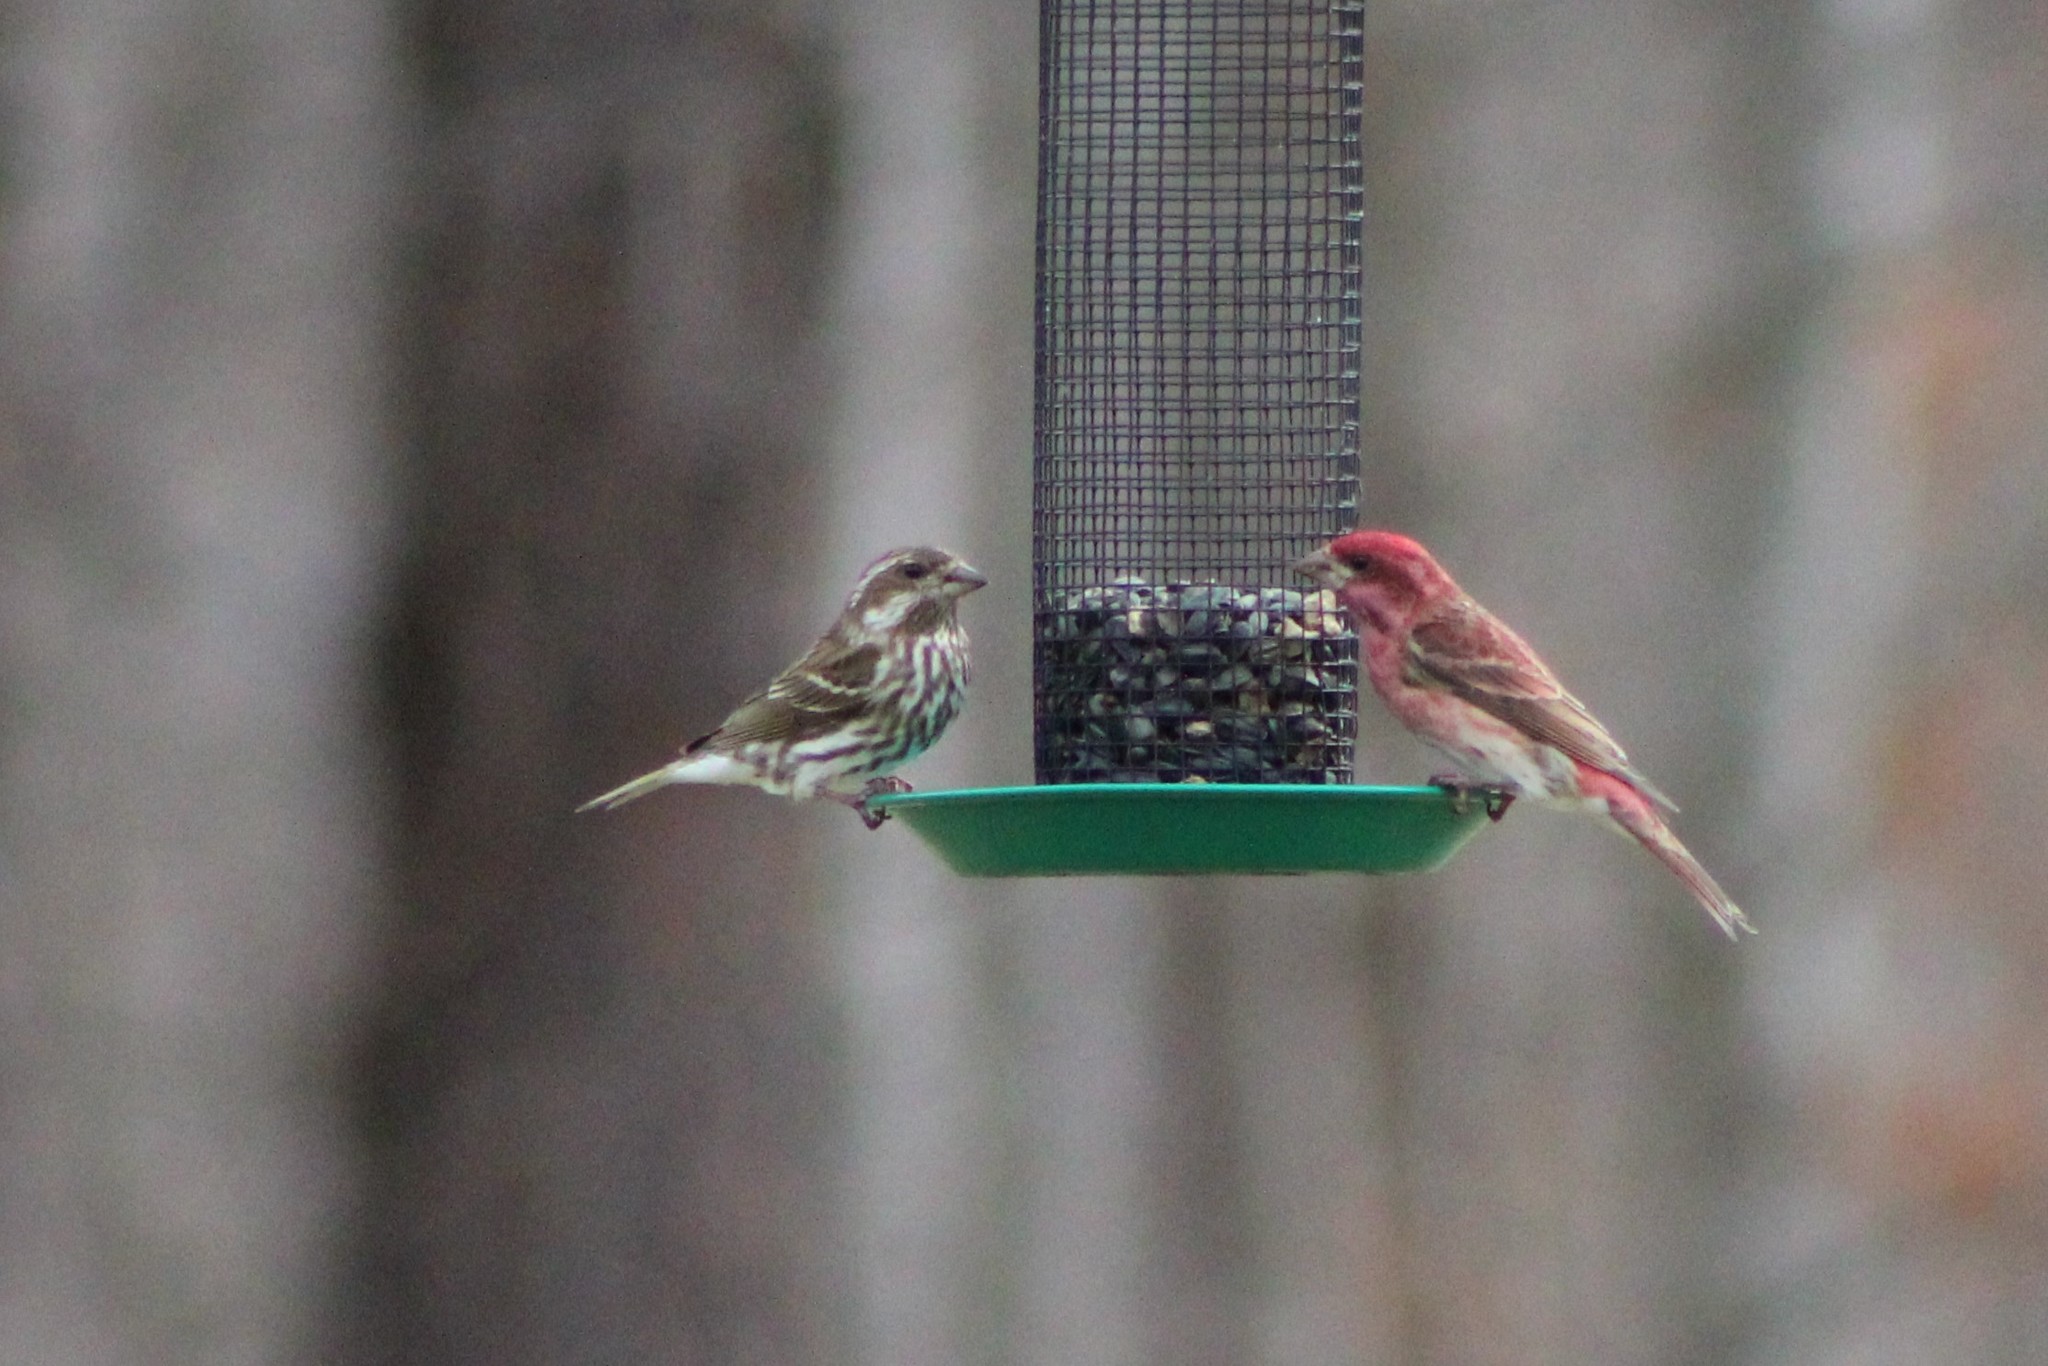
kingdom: Animalia
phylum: Chordata
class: Aves
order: Passeriformes
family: Fringillidae
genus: Haemorhous
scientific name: Haemorhous purpureus
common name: Purple finch
